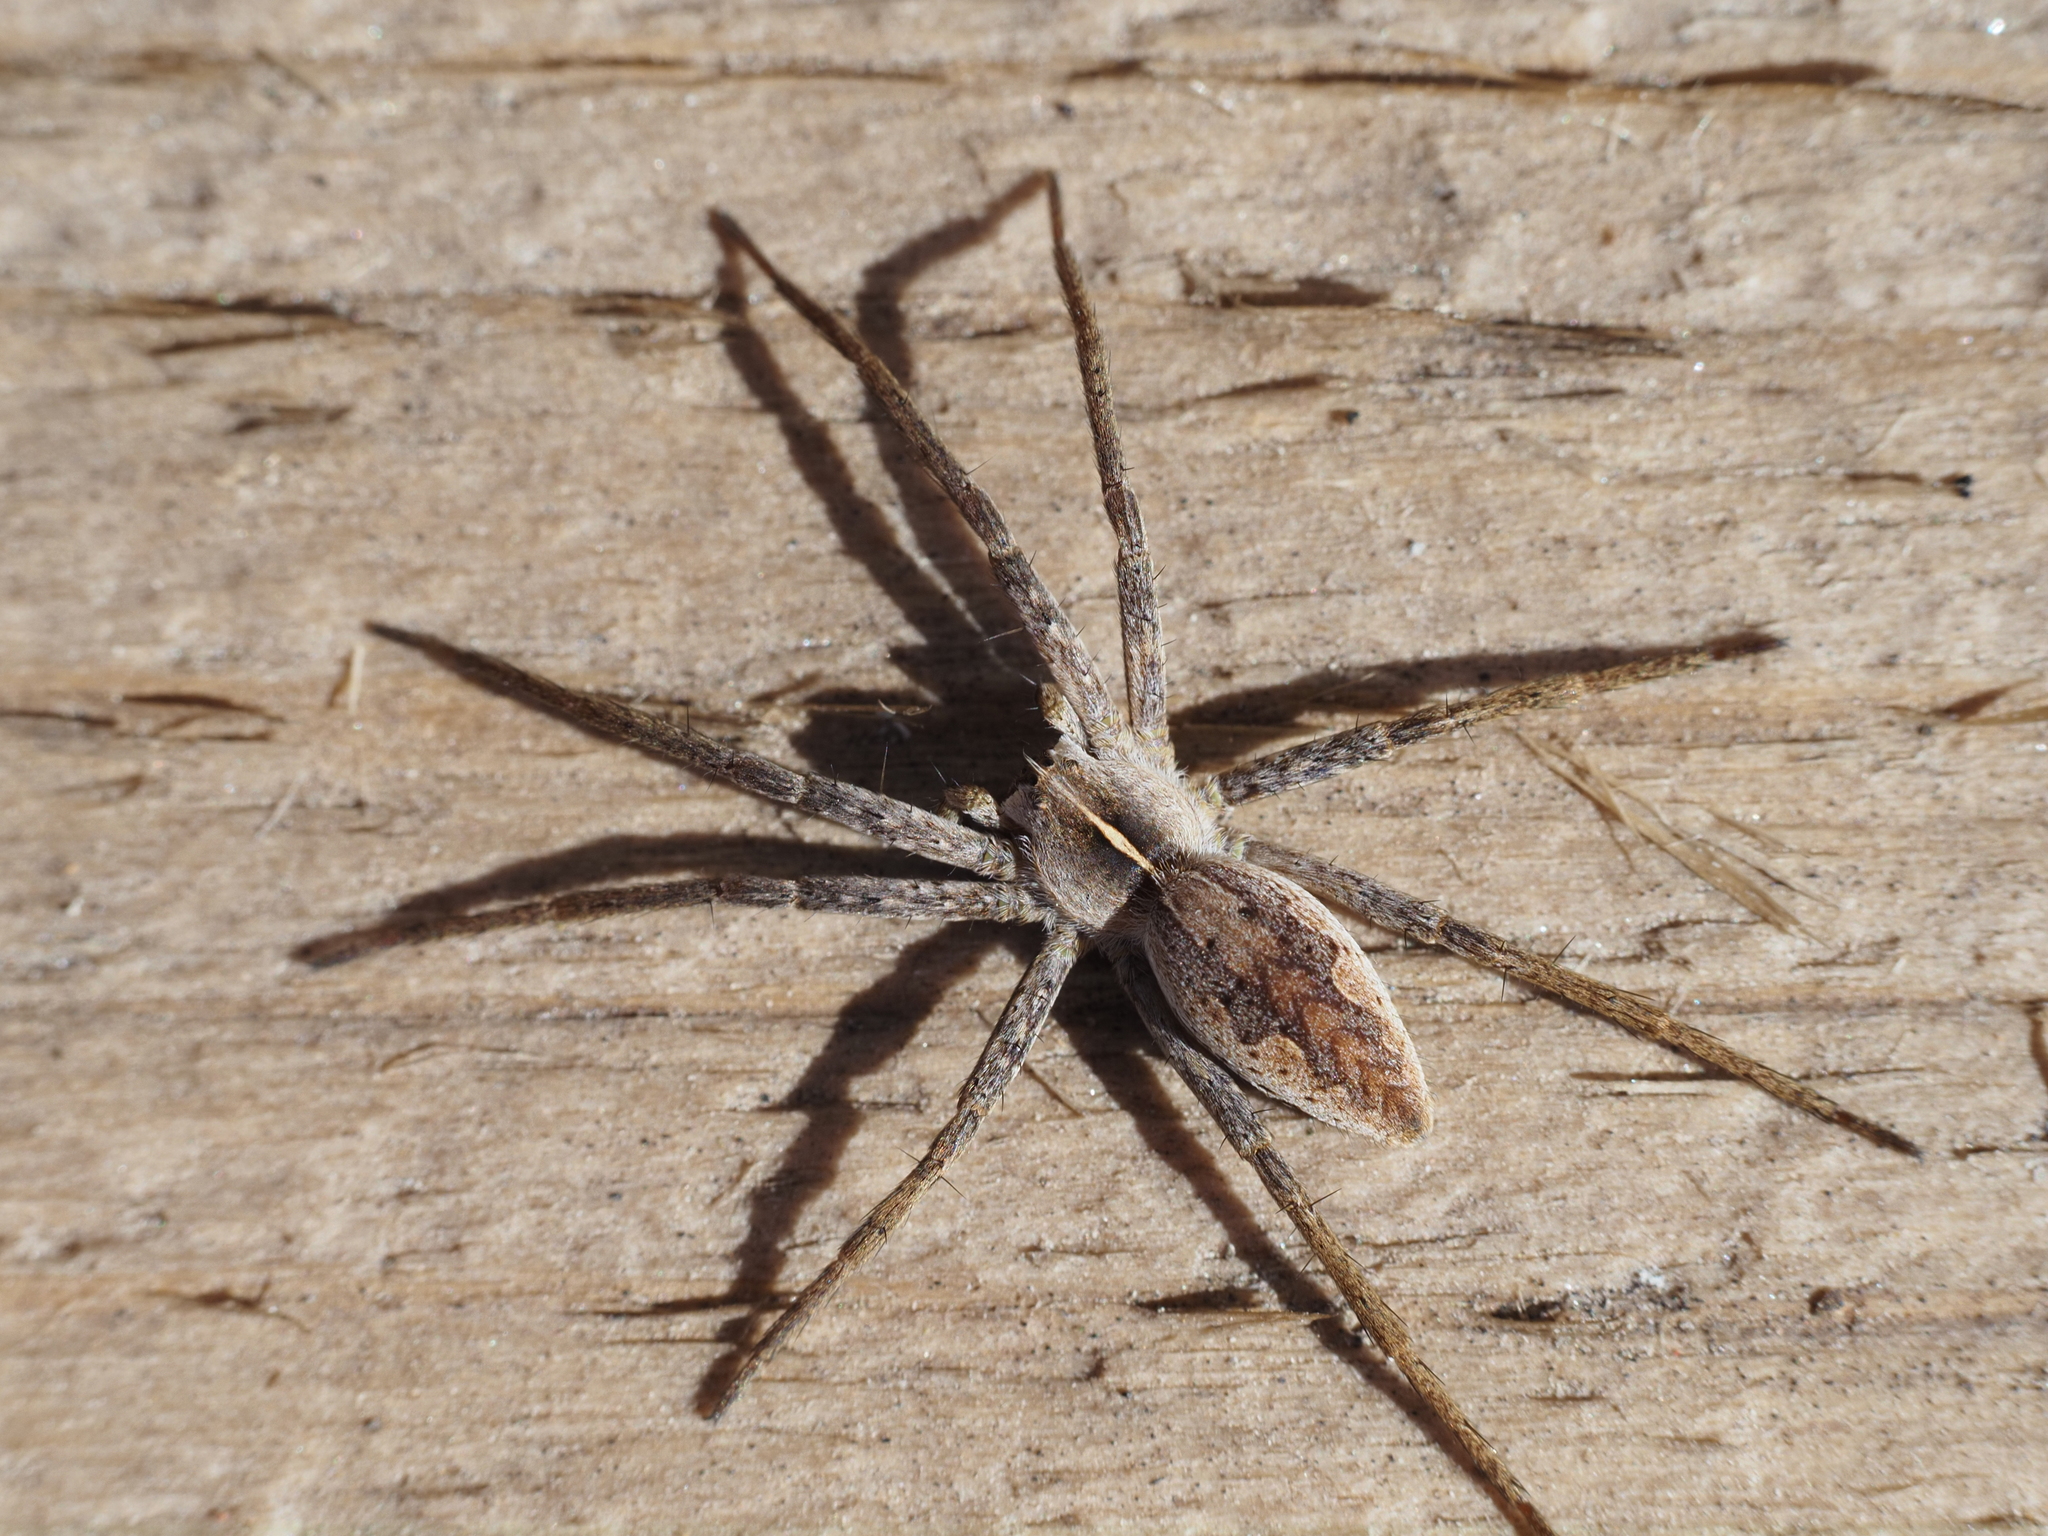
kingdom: Animalia
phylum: Arthropoda
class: Arachnida
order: Araneae
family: Pisauridae
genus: Pisaura
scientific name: Pisaura mirabilis
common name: Tent spider
